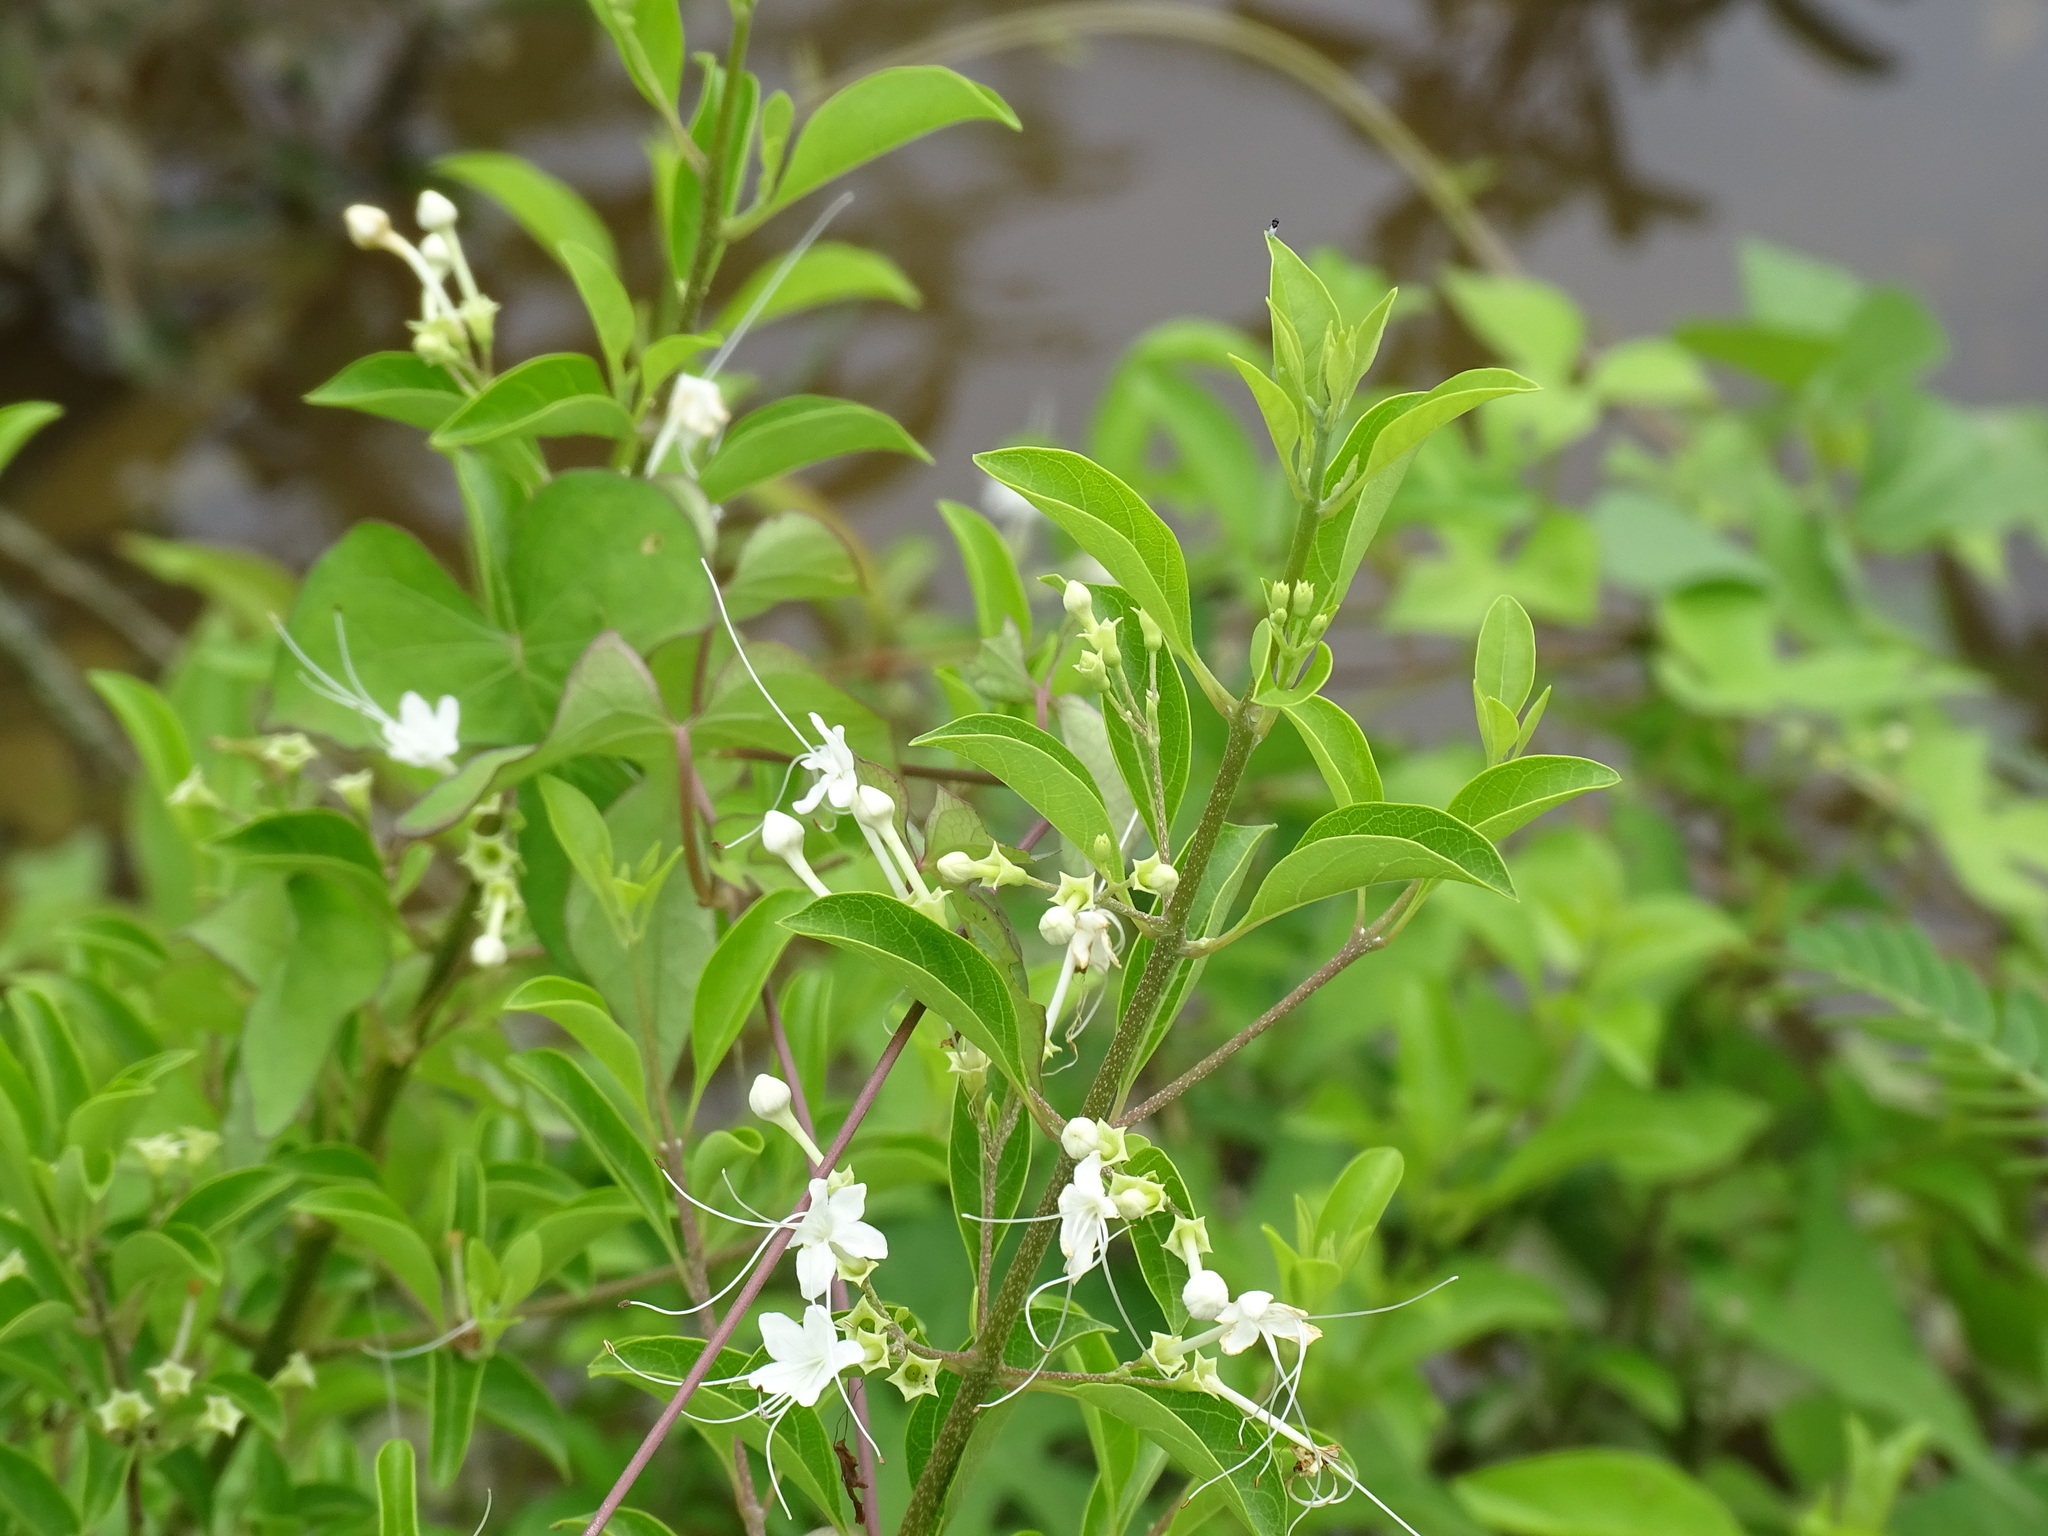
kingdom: Plantae
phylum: Tracheophyta
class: Magnoliopsida
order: Lamiales
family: Lamiaceae
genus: Volkameria
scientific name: Volkameria ligustrina
